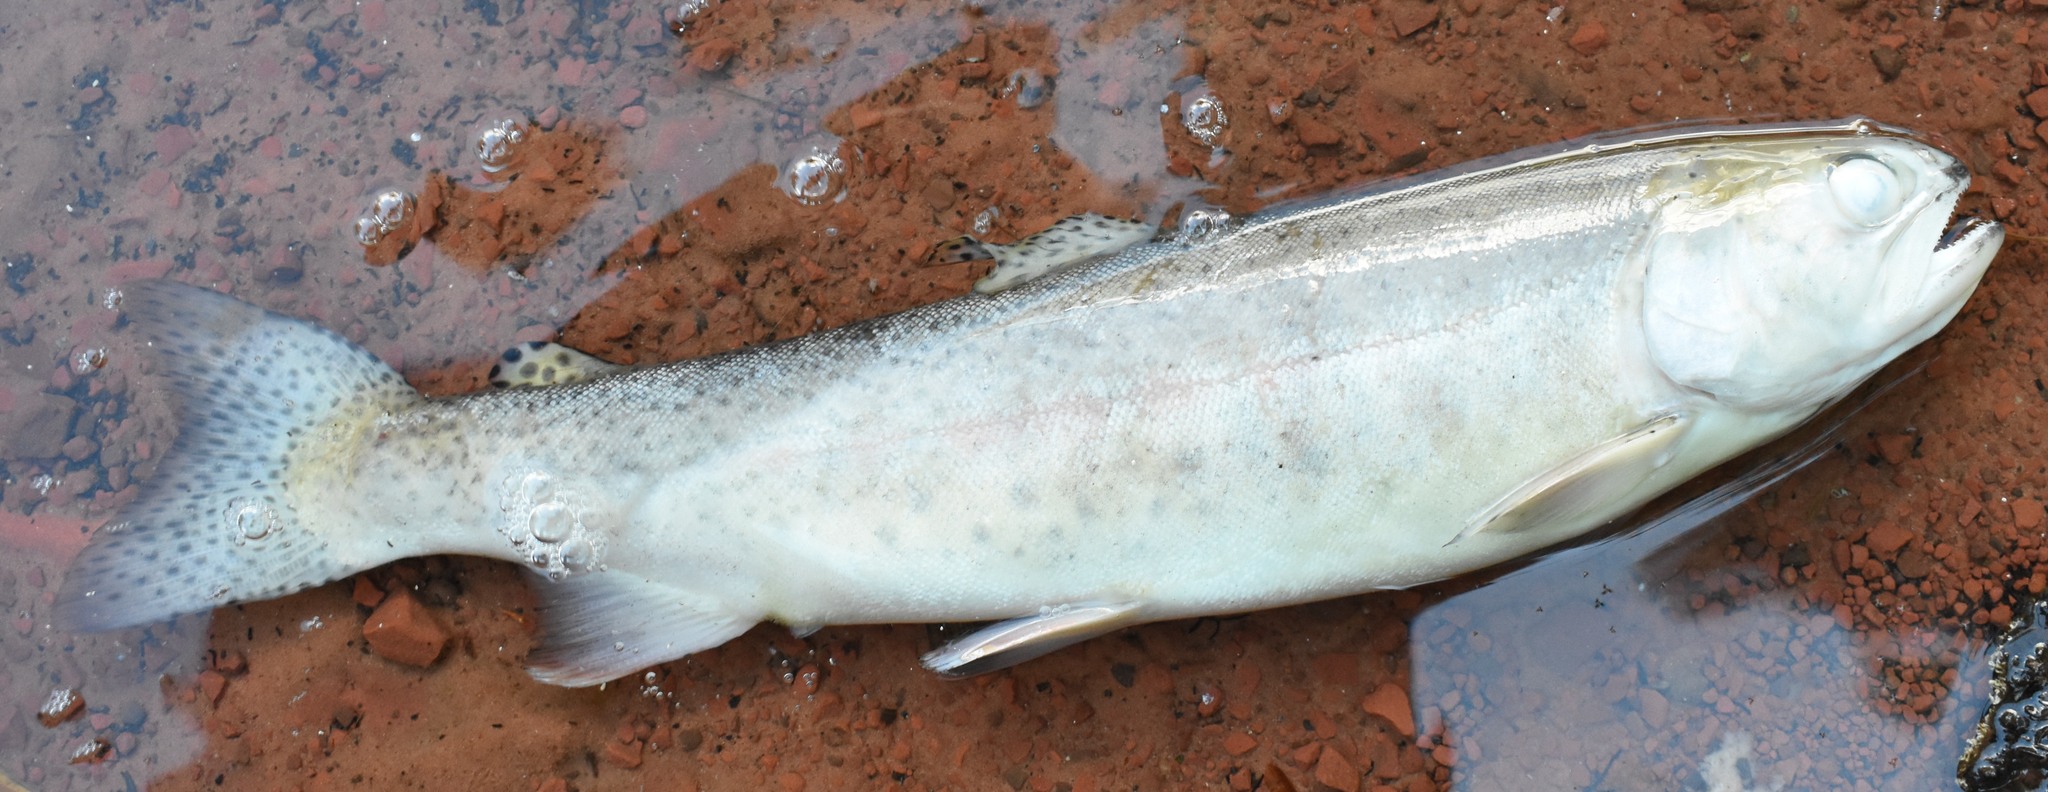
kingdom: Animalia
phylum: Chordata
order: Salmoniformes
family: Salmonidae
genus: Oncorhynchus
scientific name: Oncorhynchus mykiss
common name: Rainbow trout
